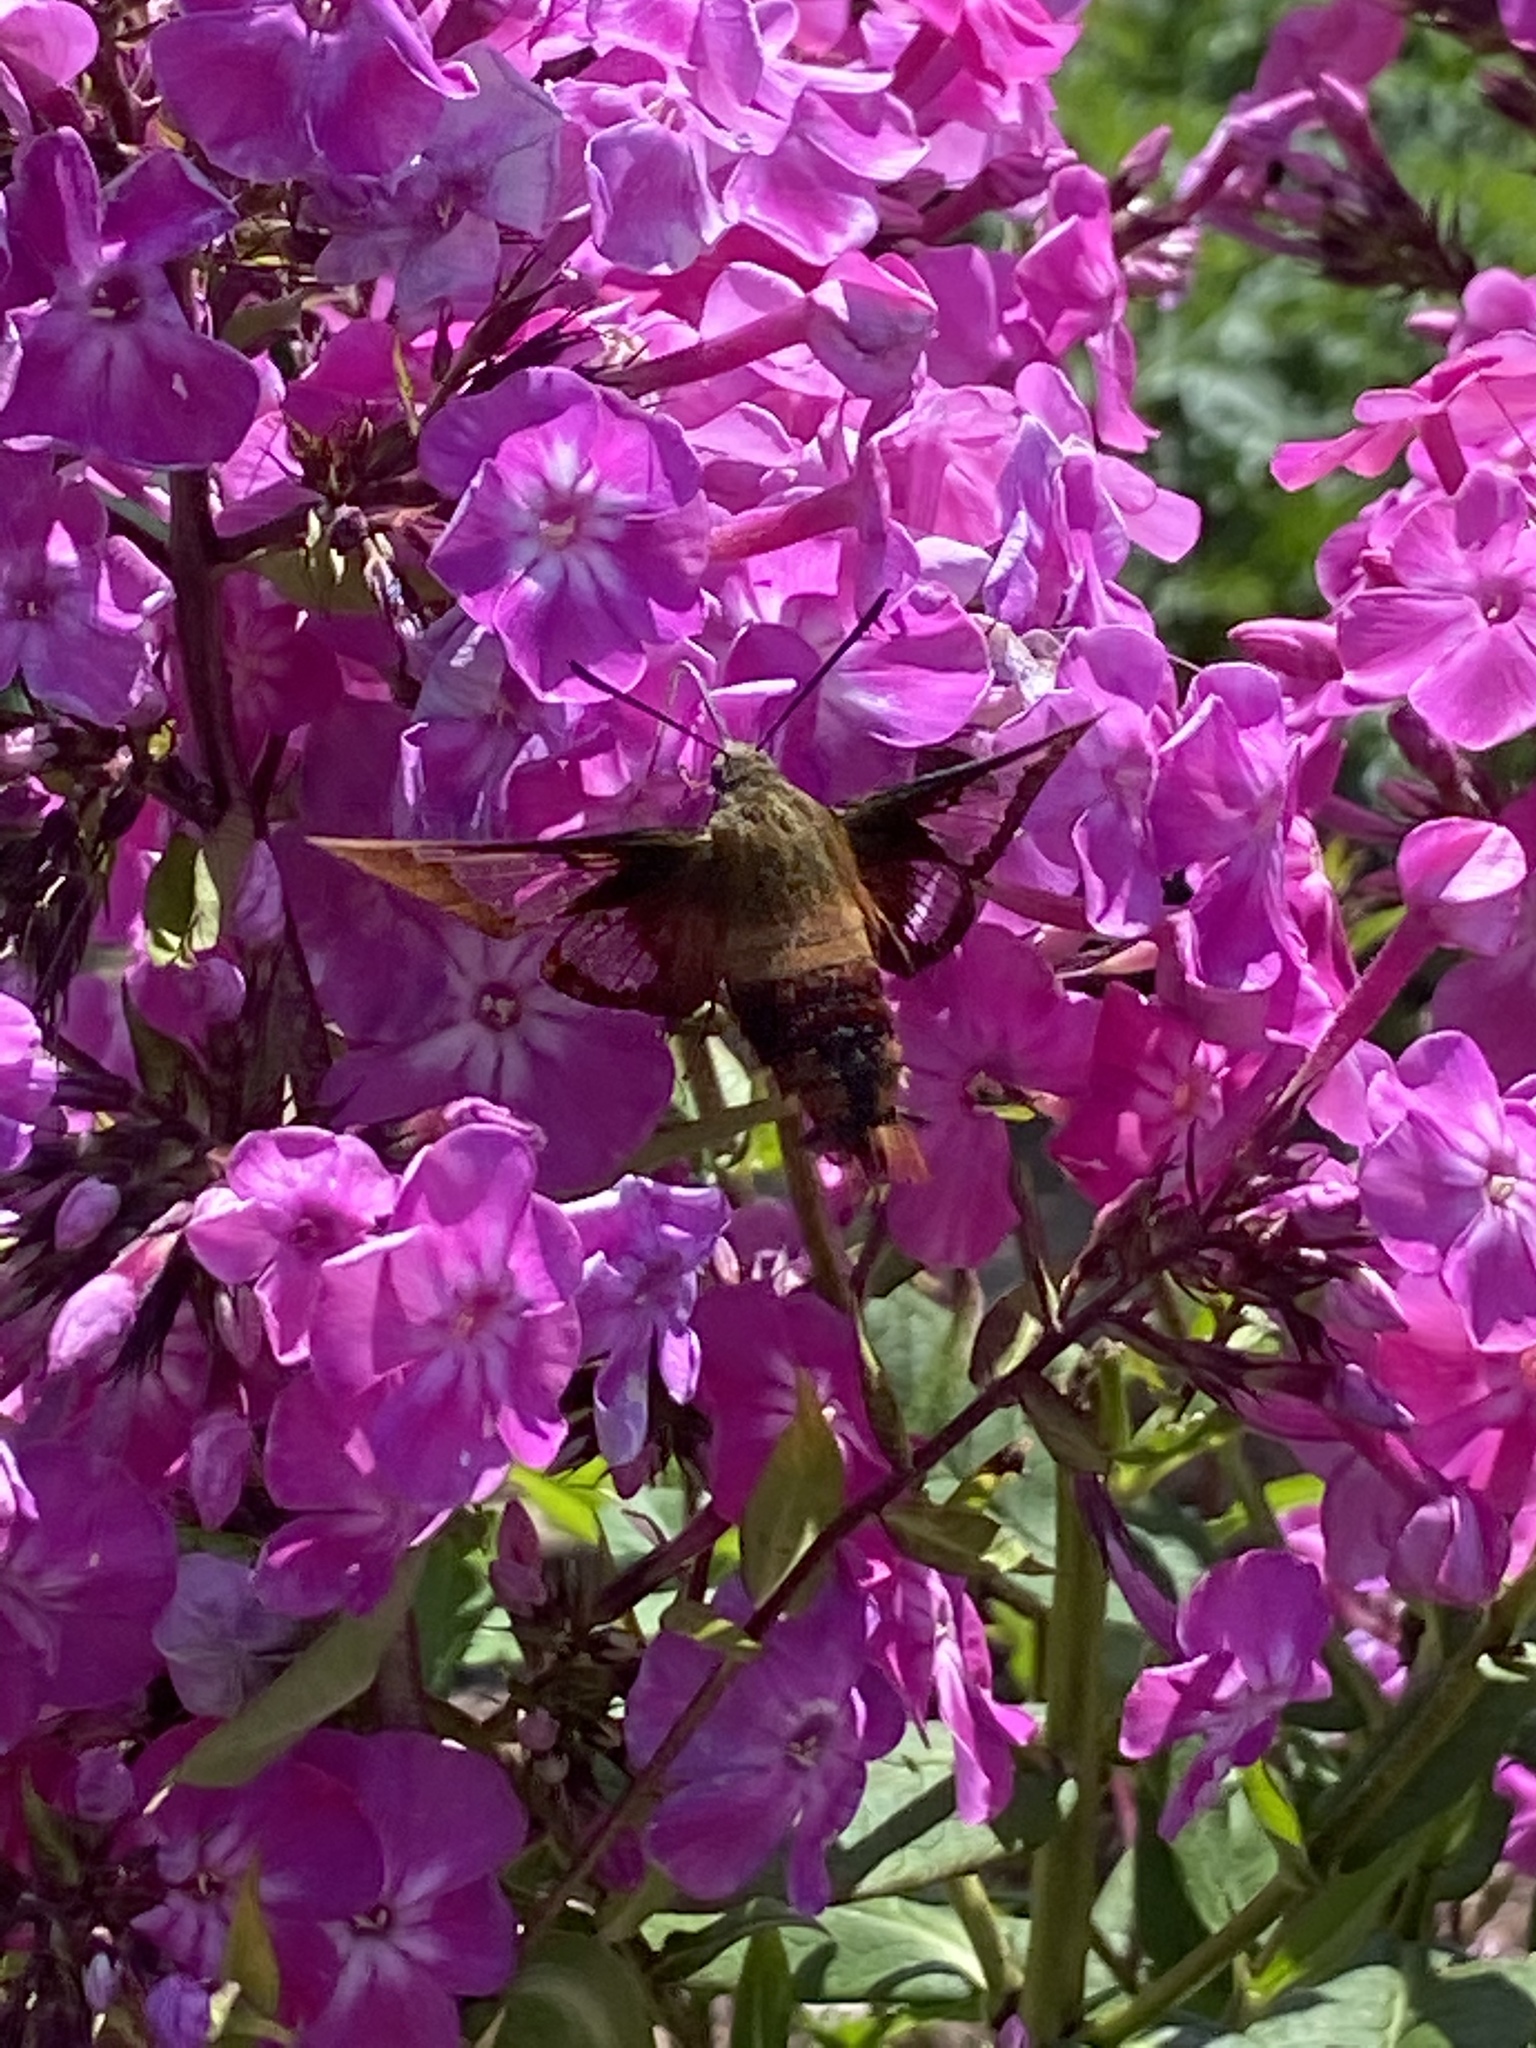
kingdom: Animalia
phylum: Arthropoda
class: Insecta
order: Lepidoptera
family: Sphingidae
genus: Hemaris
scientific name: Hemaris thysbe
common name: Common clear-wing
